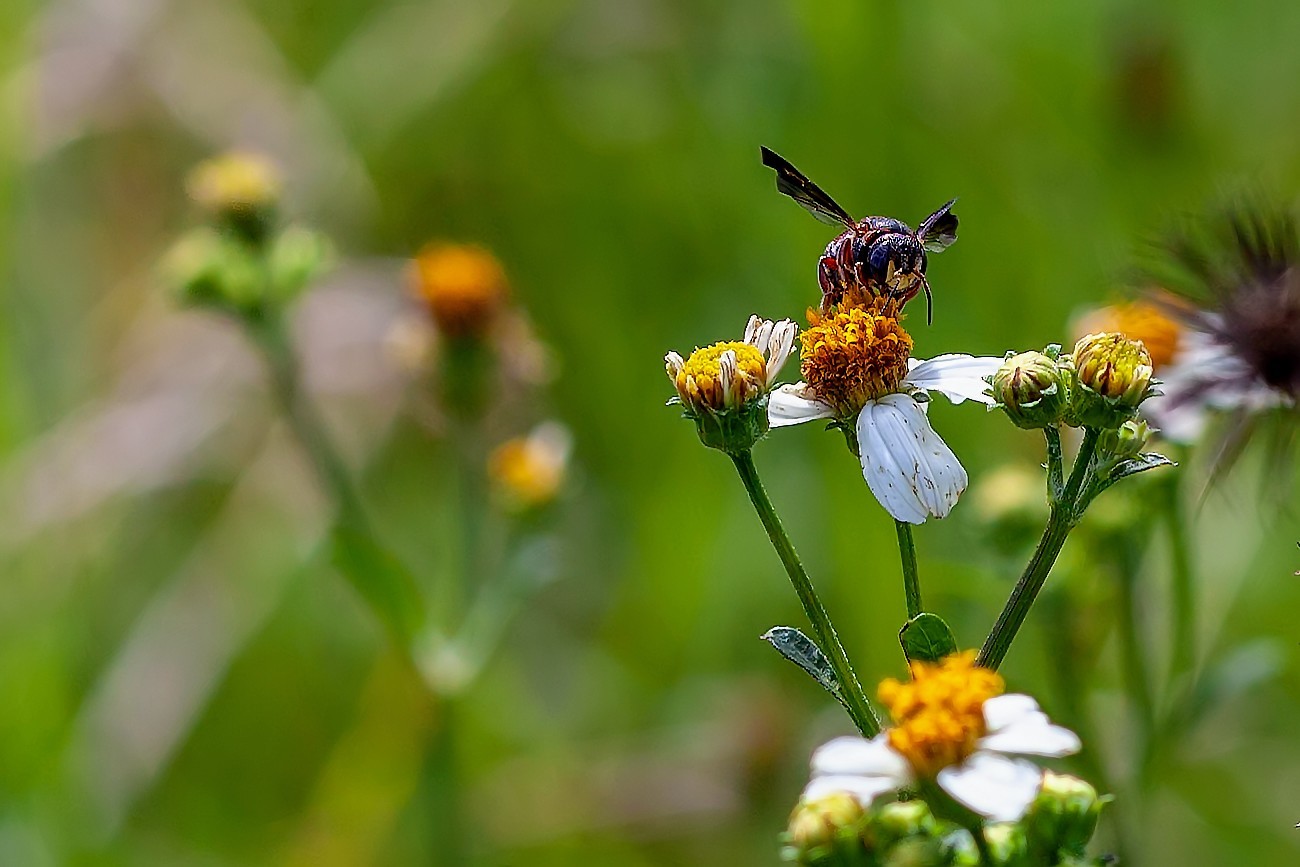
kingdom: Animalia
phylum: Arthropoda
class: Insecta
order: Hymenoptera
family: Megachilidae
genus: Anthidiellum
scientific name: Anthidiellum perplexum
